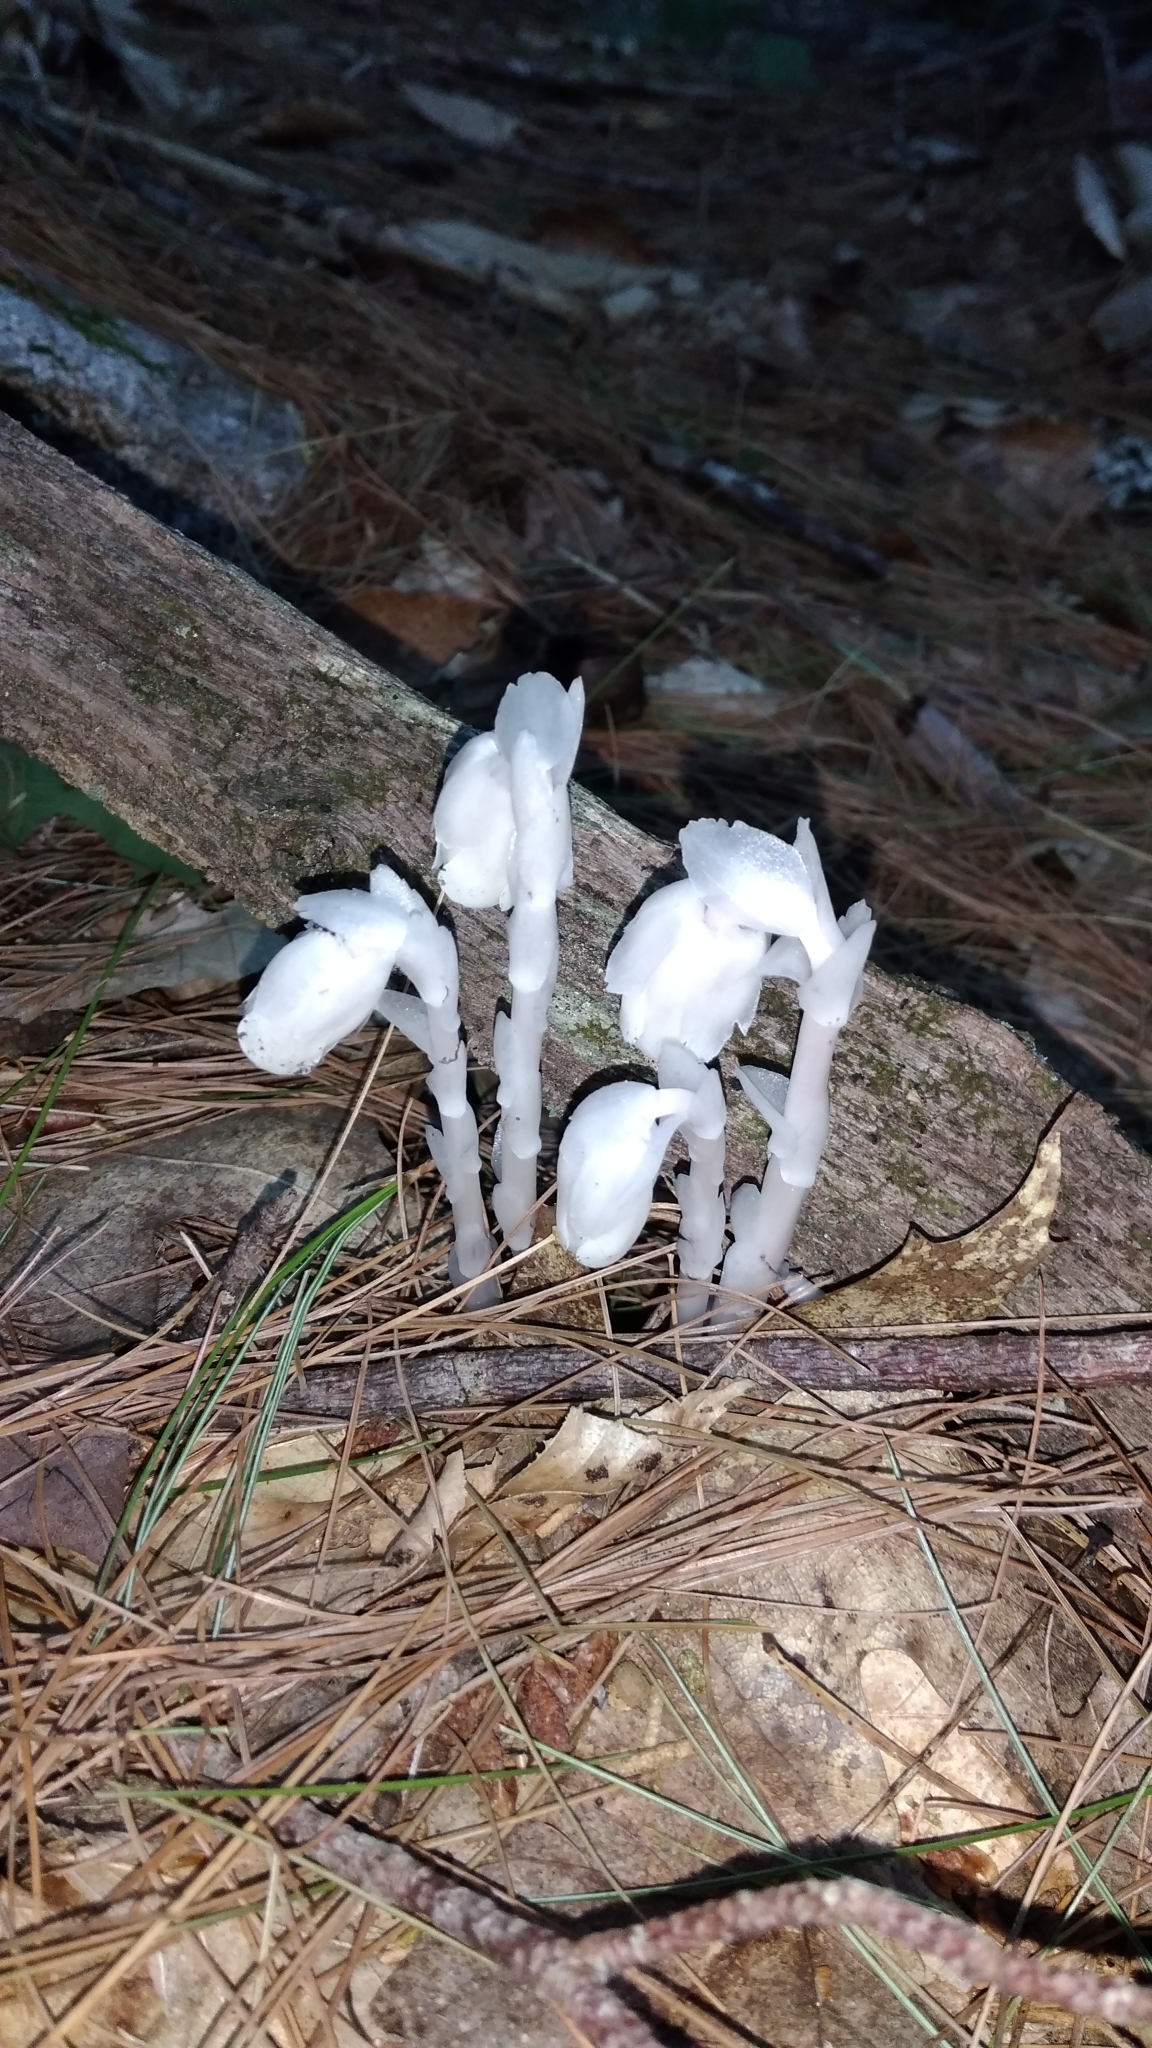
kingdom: Plantae
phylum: Tracheophyta
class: Magnoliopsida
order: Ericales
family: Ericaceae
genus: Monotropa
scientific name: Monotropa uniflora
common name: Convulsion root
